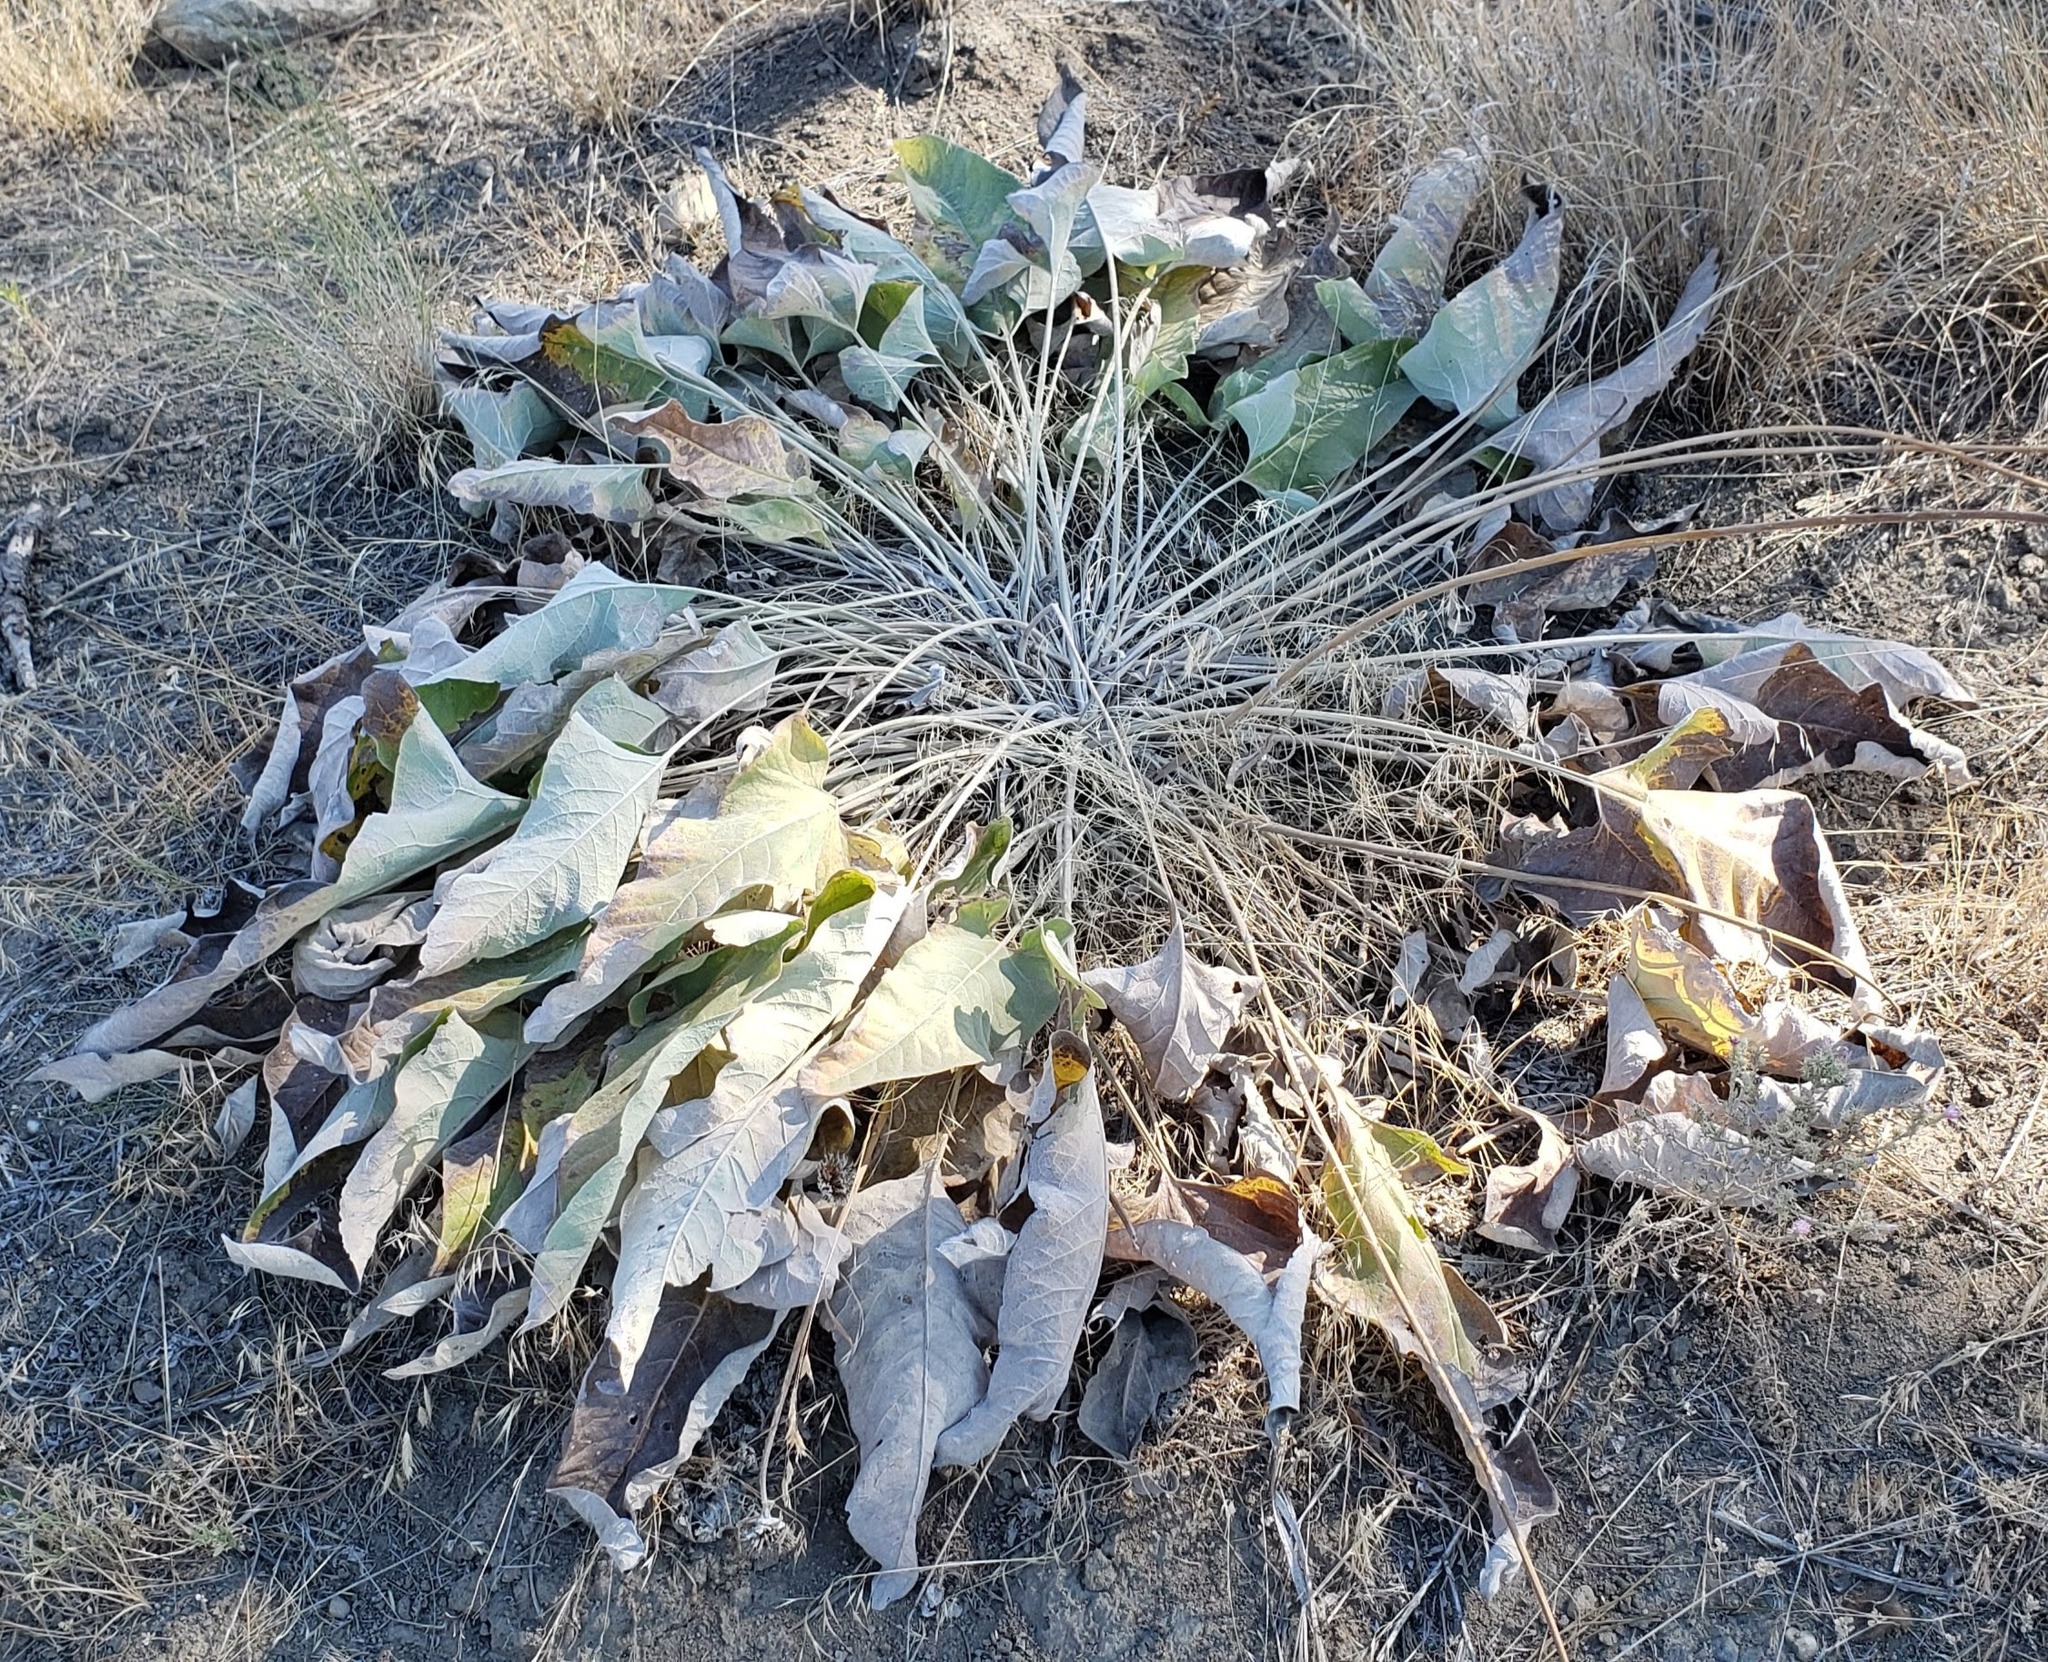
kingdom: Plantae
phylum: Tracheophyta
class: Magnoliopsida
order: Asterales
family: Asteraceae
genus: Wyethia
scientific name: Wyethia sagittata
